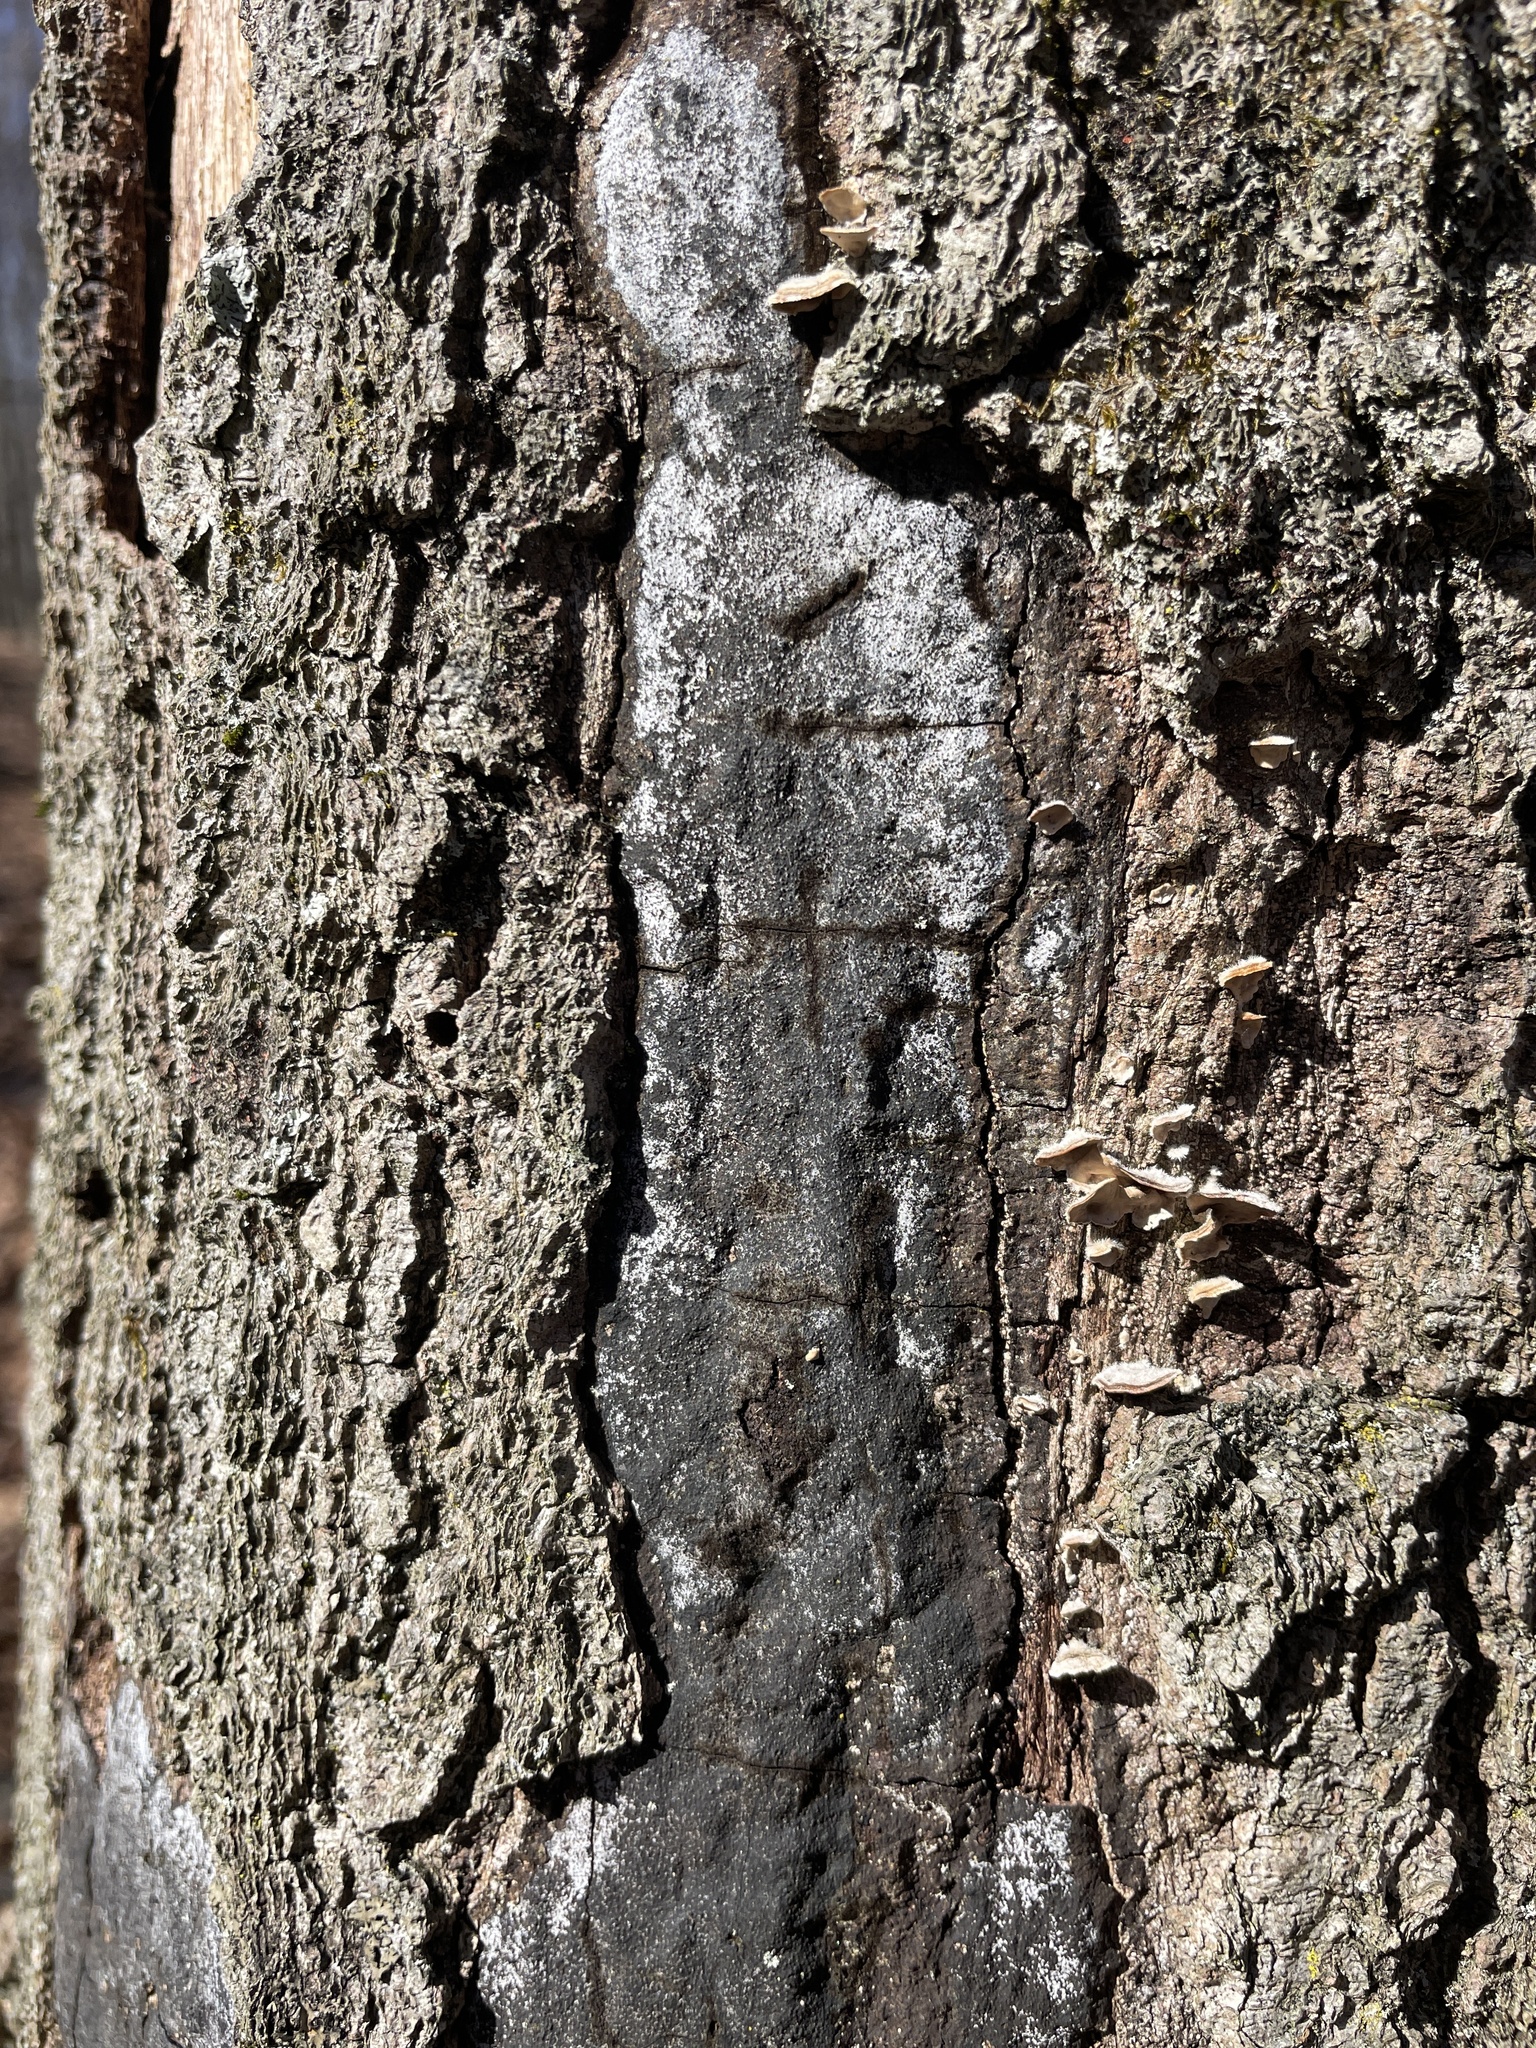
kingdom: Fungi
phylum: Ascomycota
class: Sordariomycetes
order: Xylariales
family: Graphostromataceae
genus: Biscogniauxia
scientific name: Biscogniauxia atropunctata
